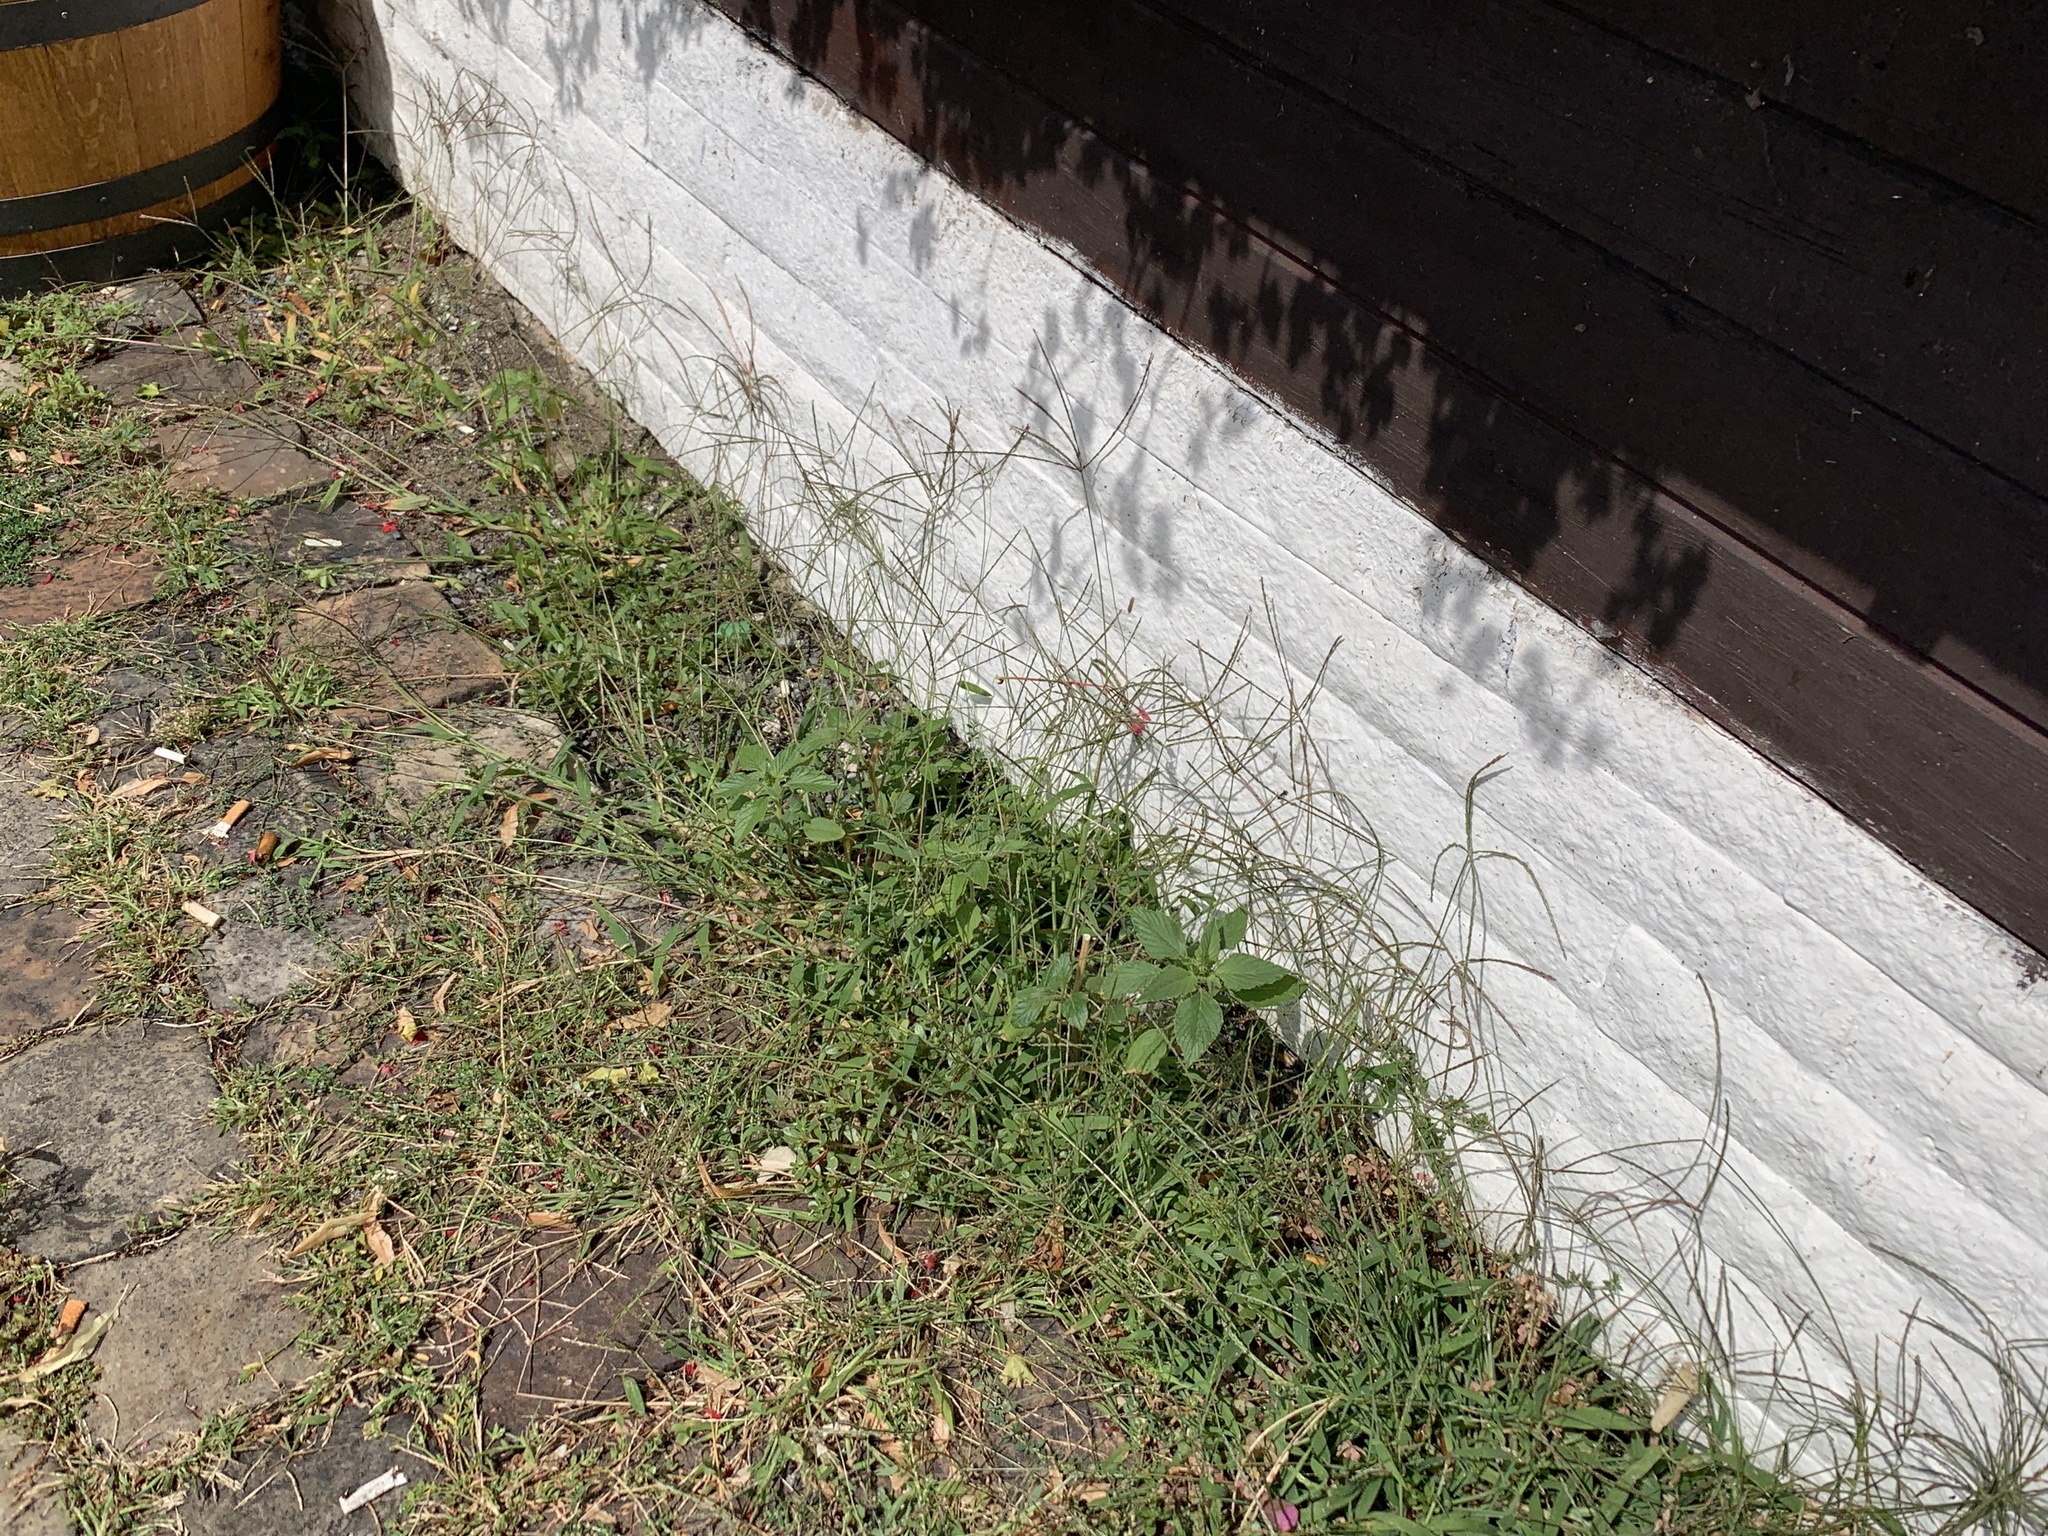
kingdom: Plantae
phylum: Tracheophyta
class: Liliopsida
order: Poales
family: Poaceae
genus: Digitaria
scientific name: Digitaria sanguinalis
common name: Hairy crabgrass
